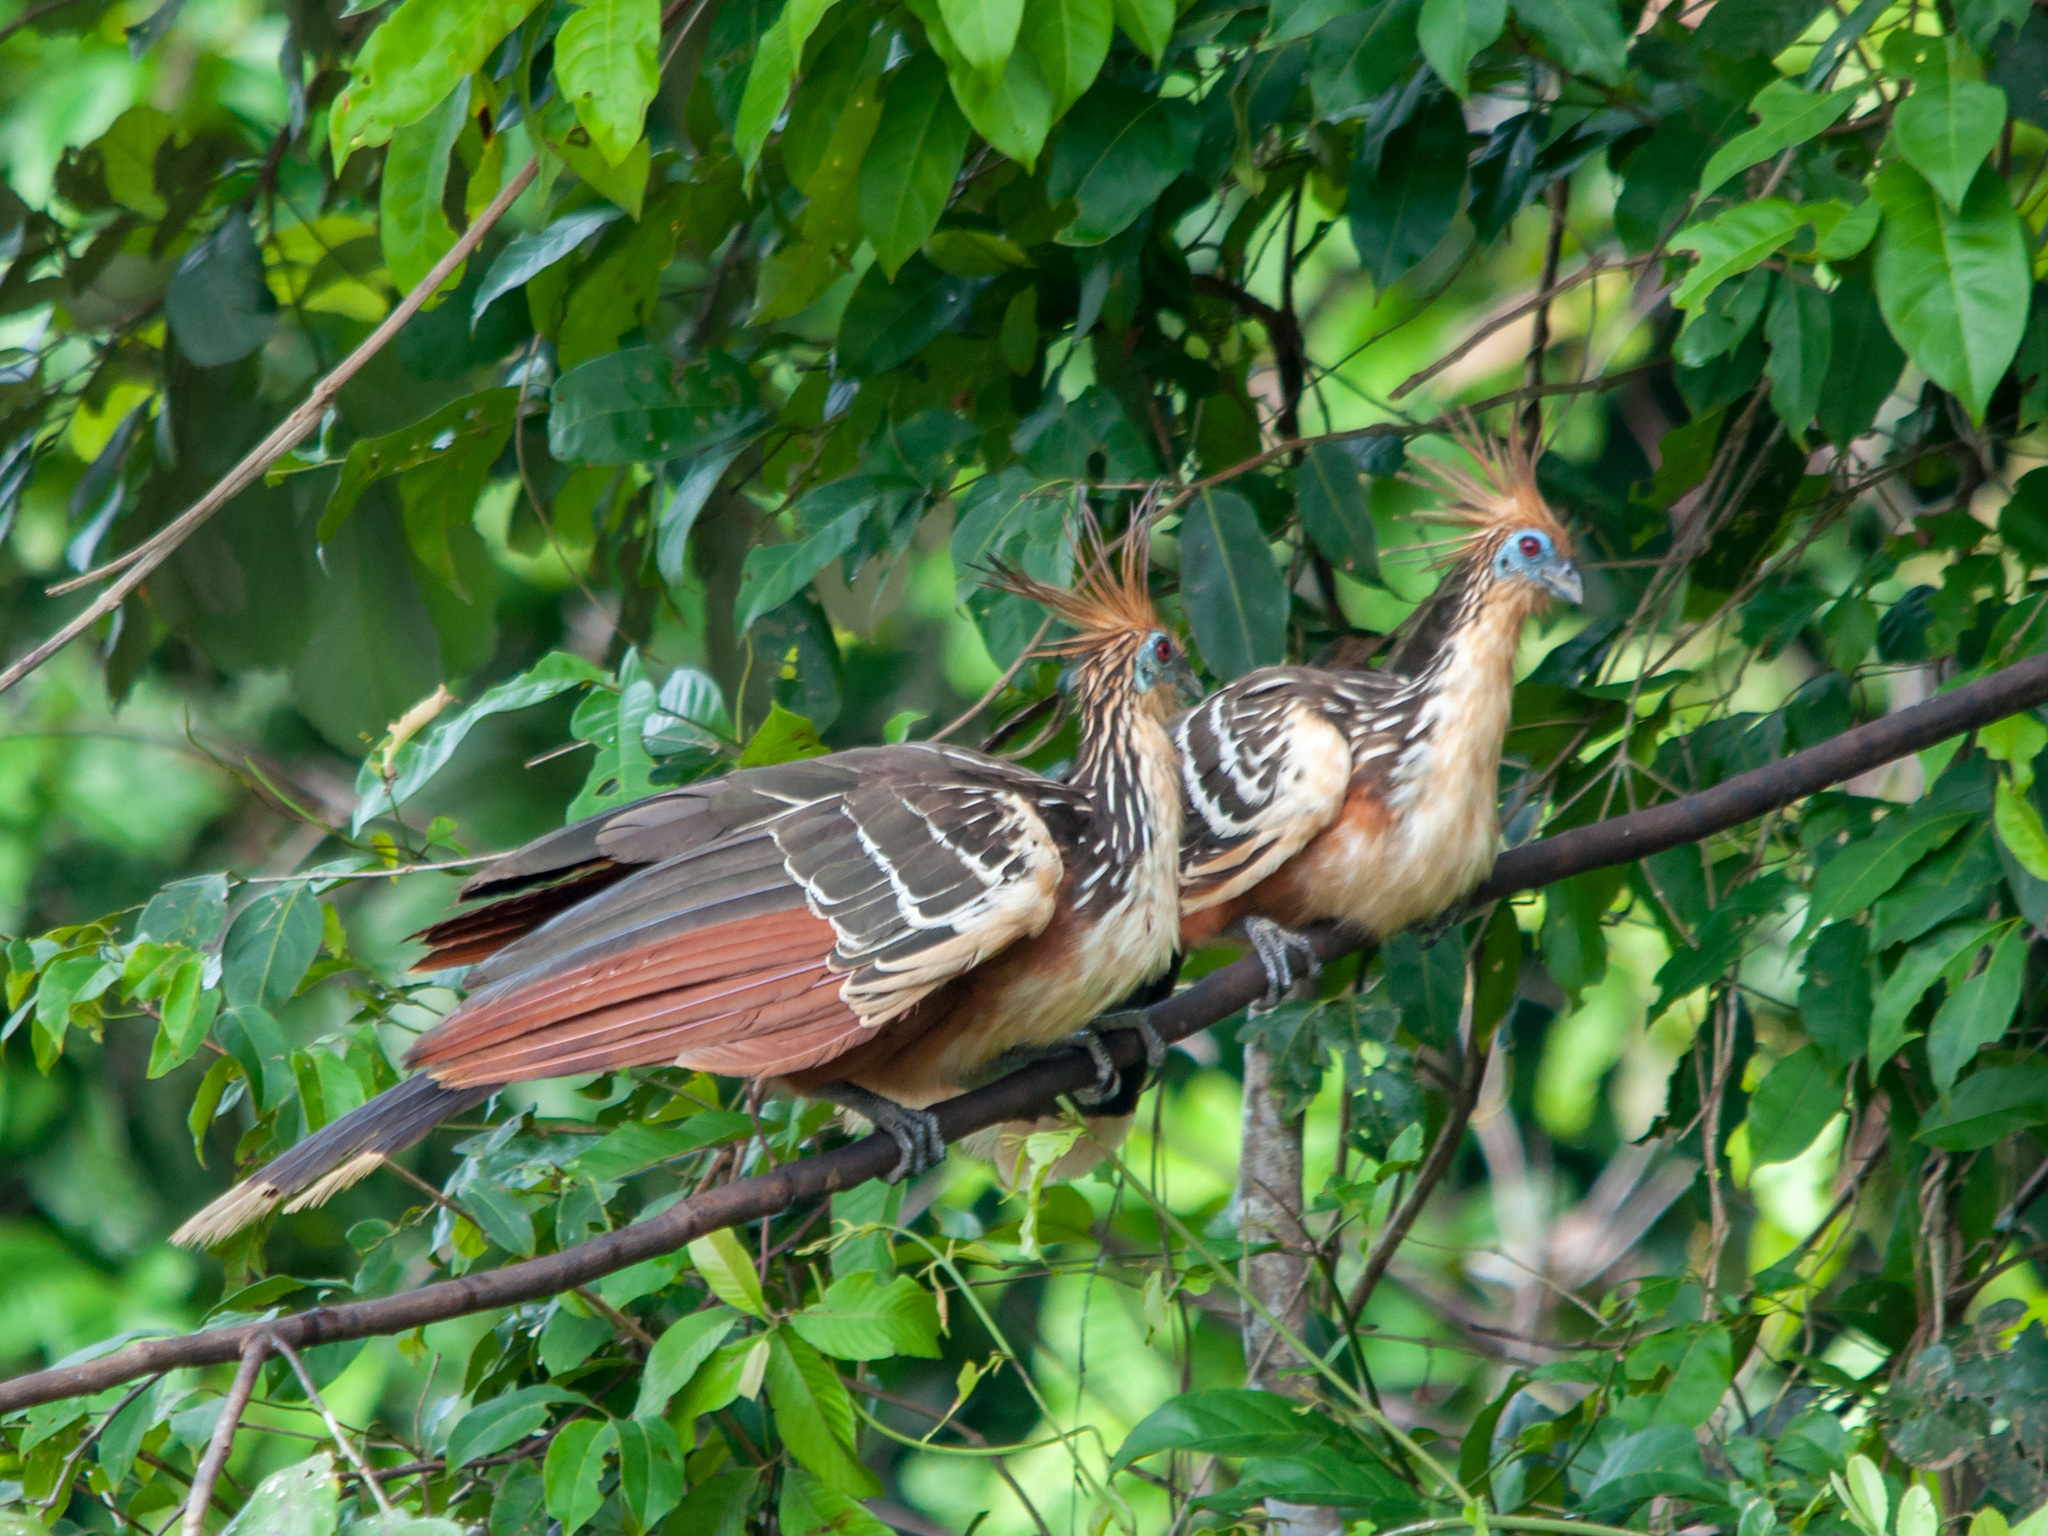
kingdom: Animalia
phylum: Chordata
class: Aves
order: Opisthocomiformes
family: Opisthocomidae
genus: Opisthocomus
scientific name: Opisthocomus hoazin
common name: Hoatzin
